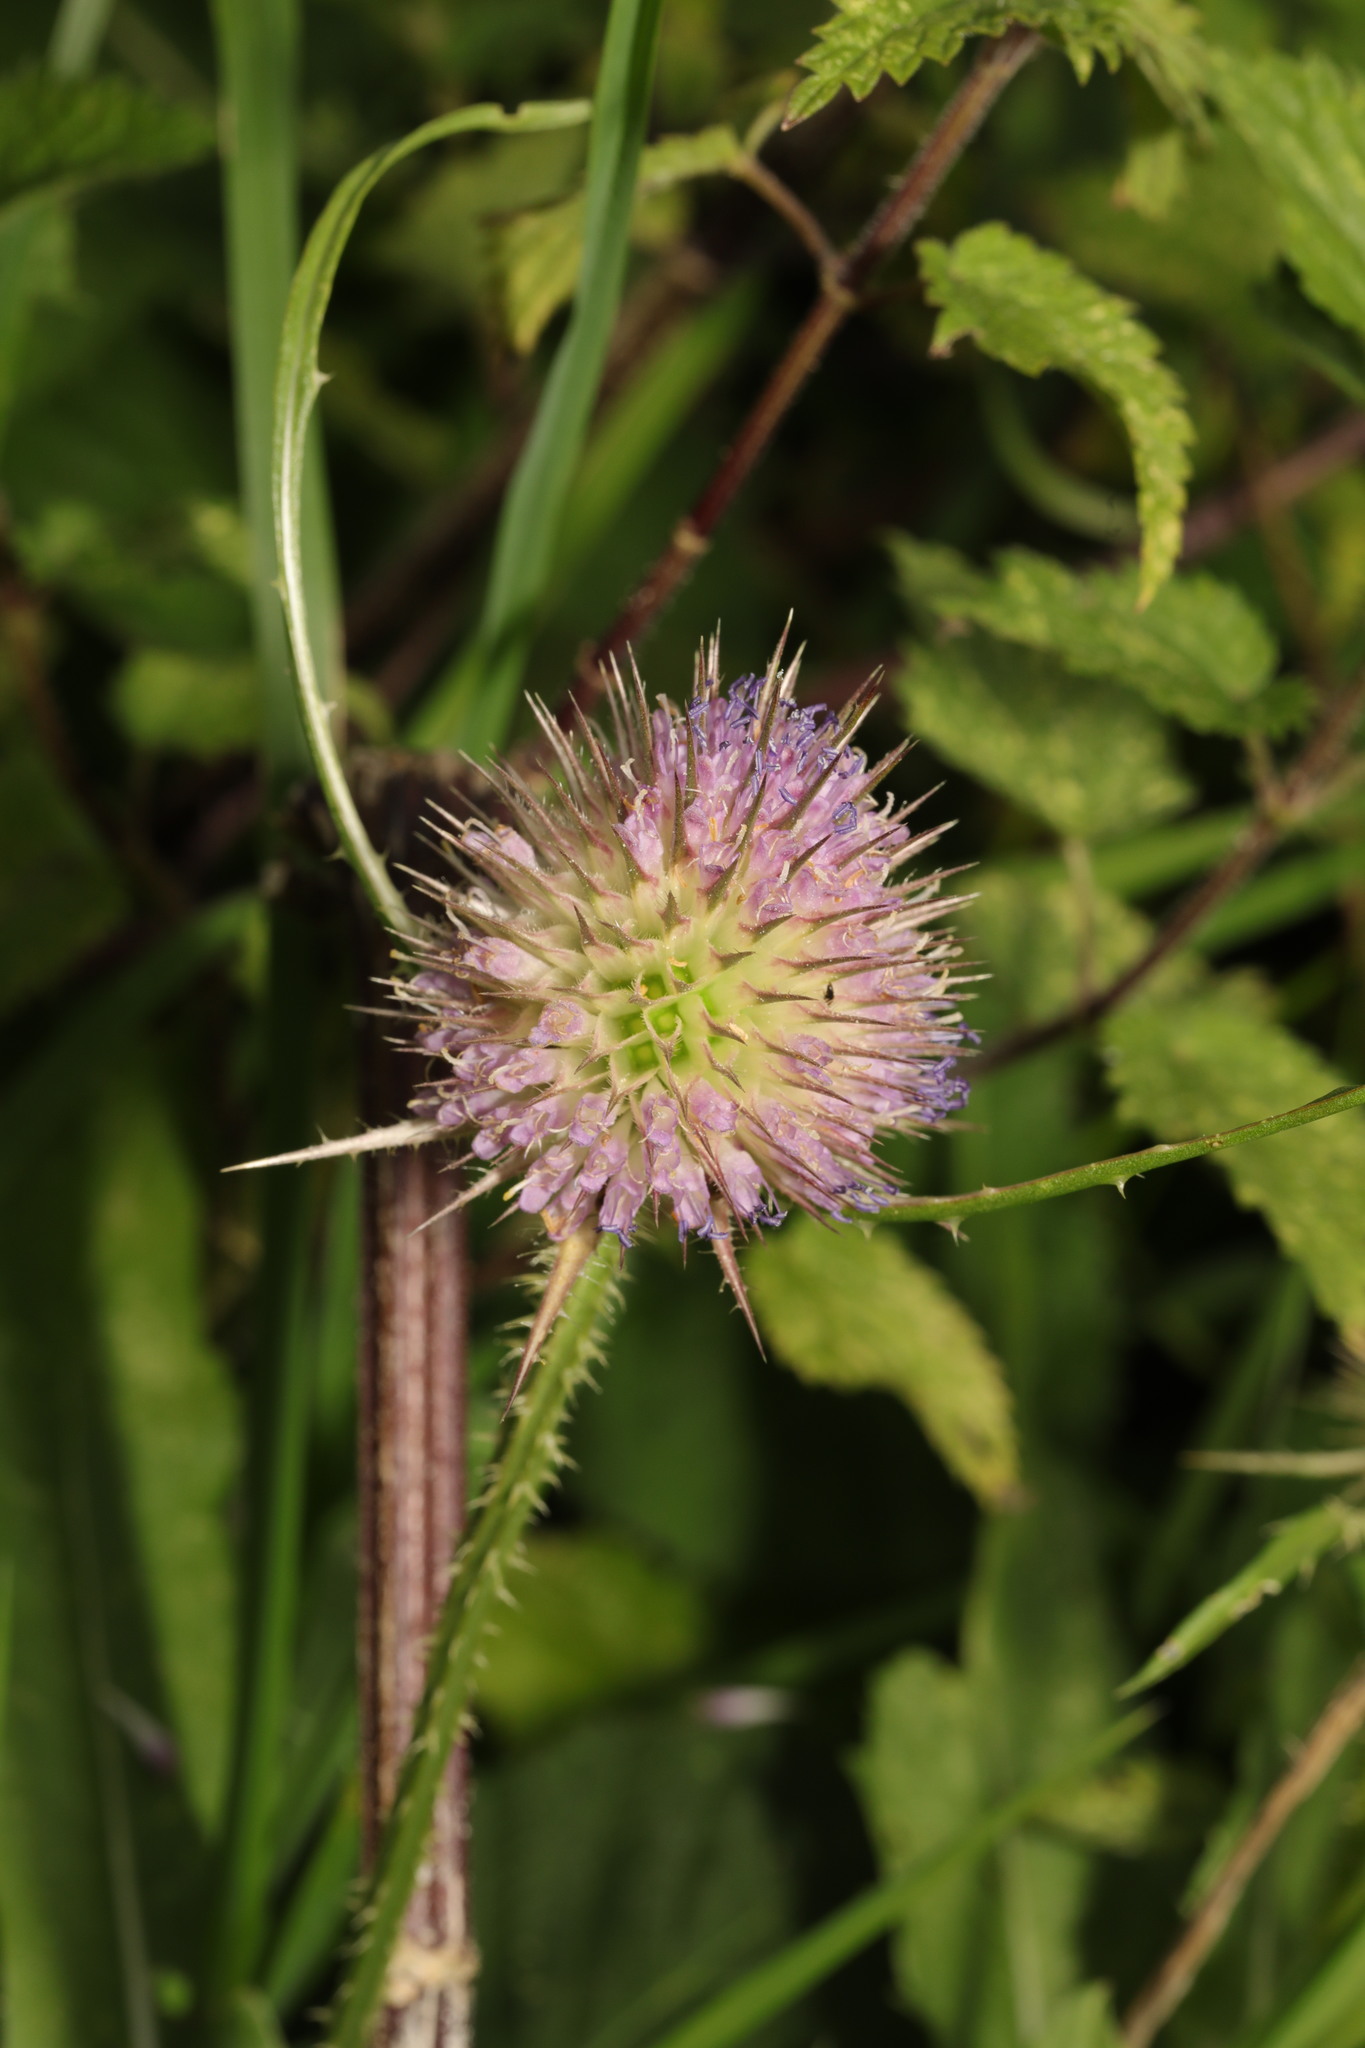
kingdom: Plantae
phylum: Tracheophyta
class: Magnoliopsida
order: Dipsacales
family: Caprifoliaceae
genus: Dipsacus
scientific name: Dipsacus fullonum
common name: Teasel
